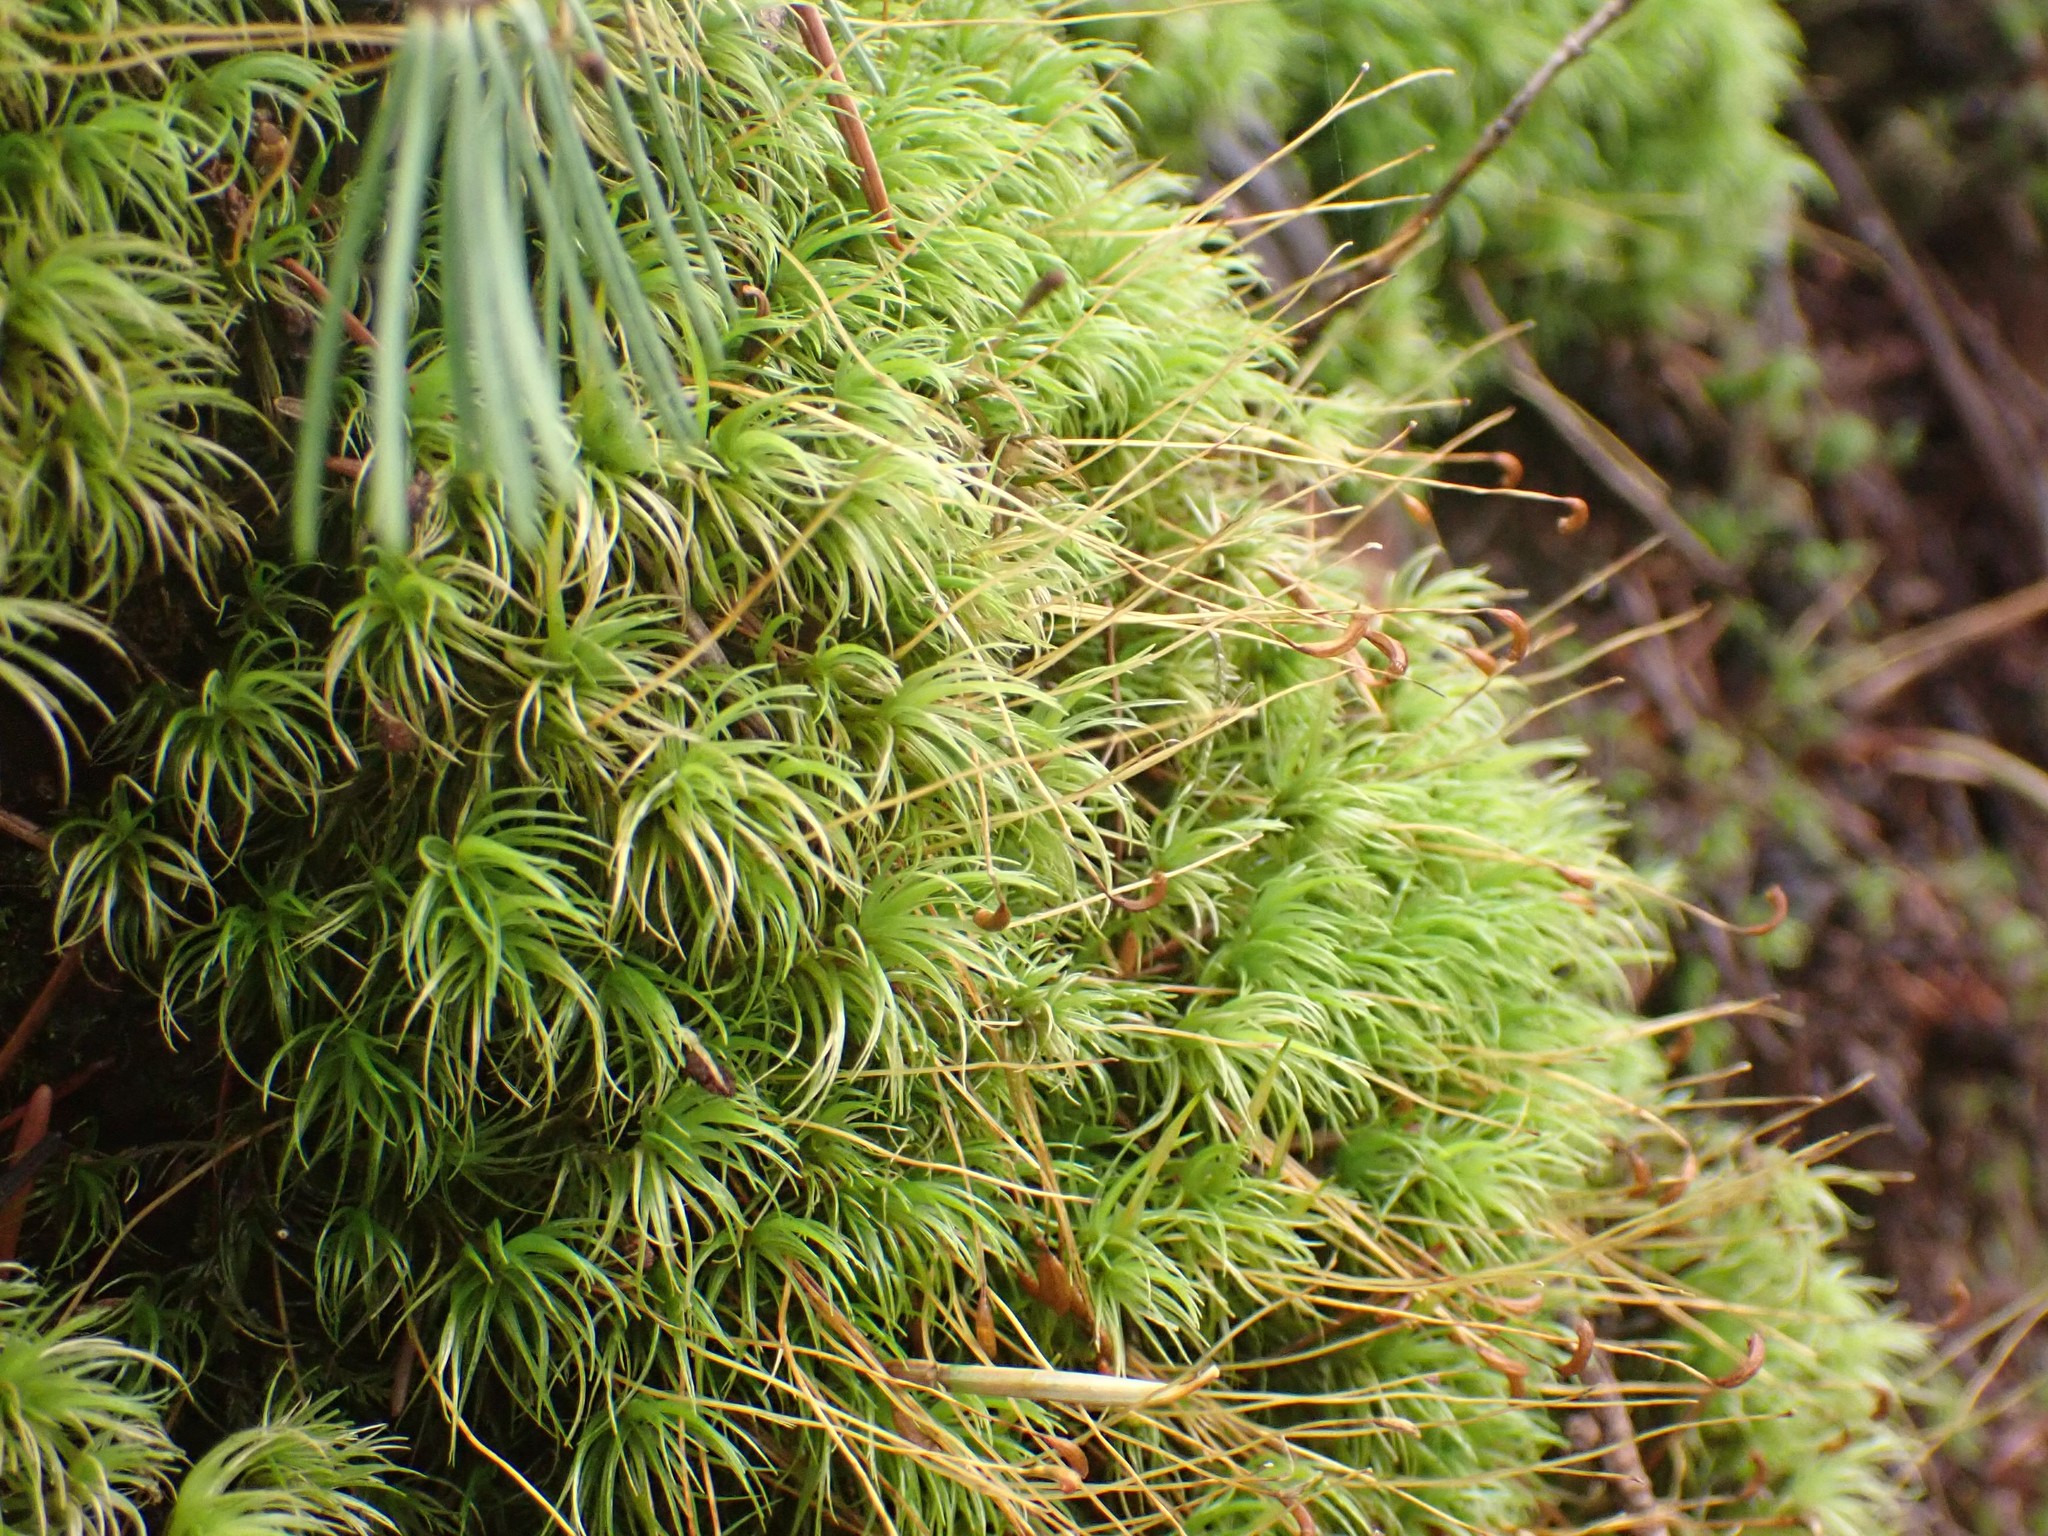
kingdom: Plantae
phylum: Bryophyta
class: Bryopsida
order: Dicranales
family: Dicranaceae
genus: Dicranum
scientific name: Dicranum scoparium
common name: Broom fork-moss
